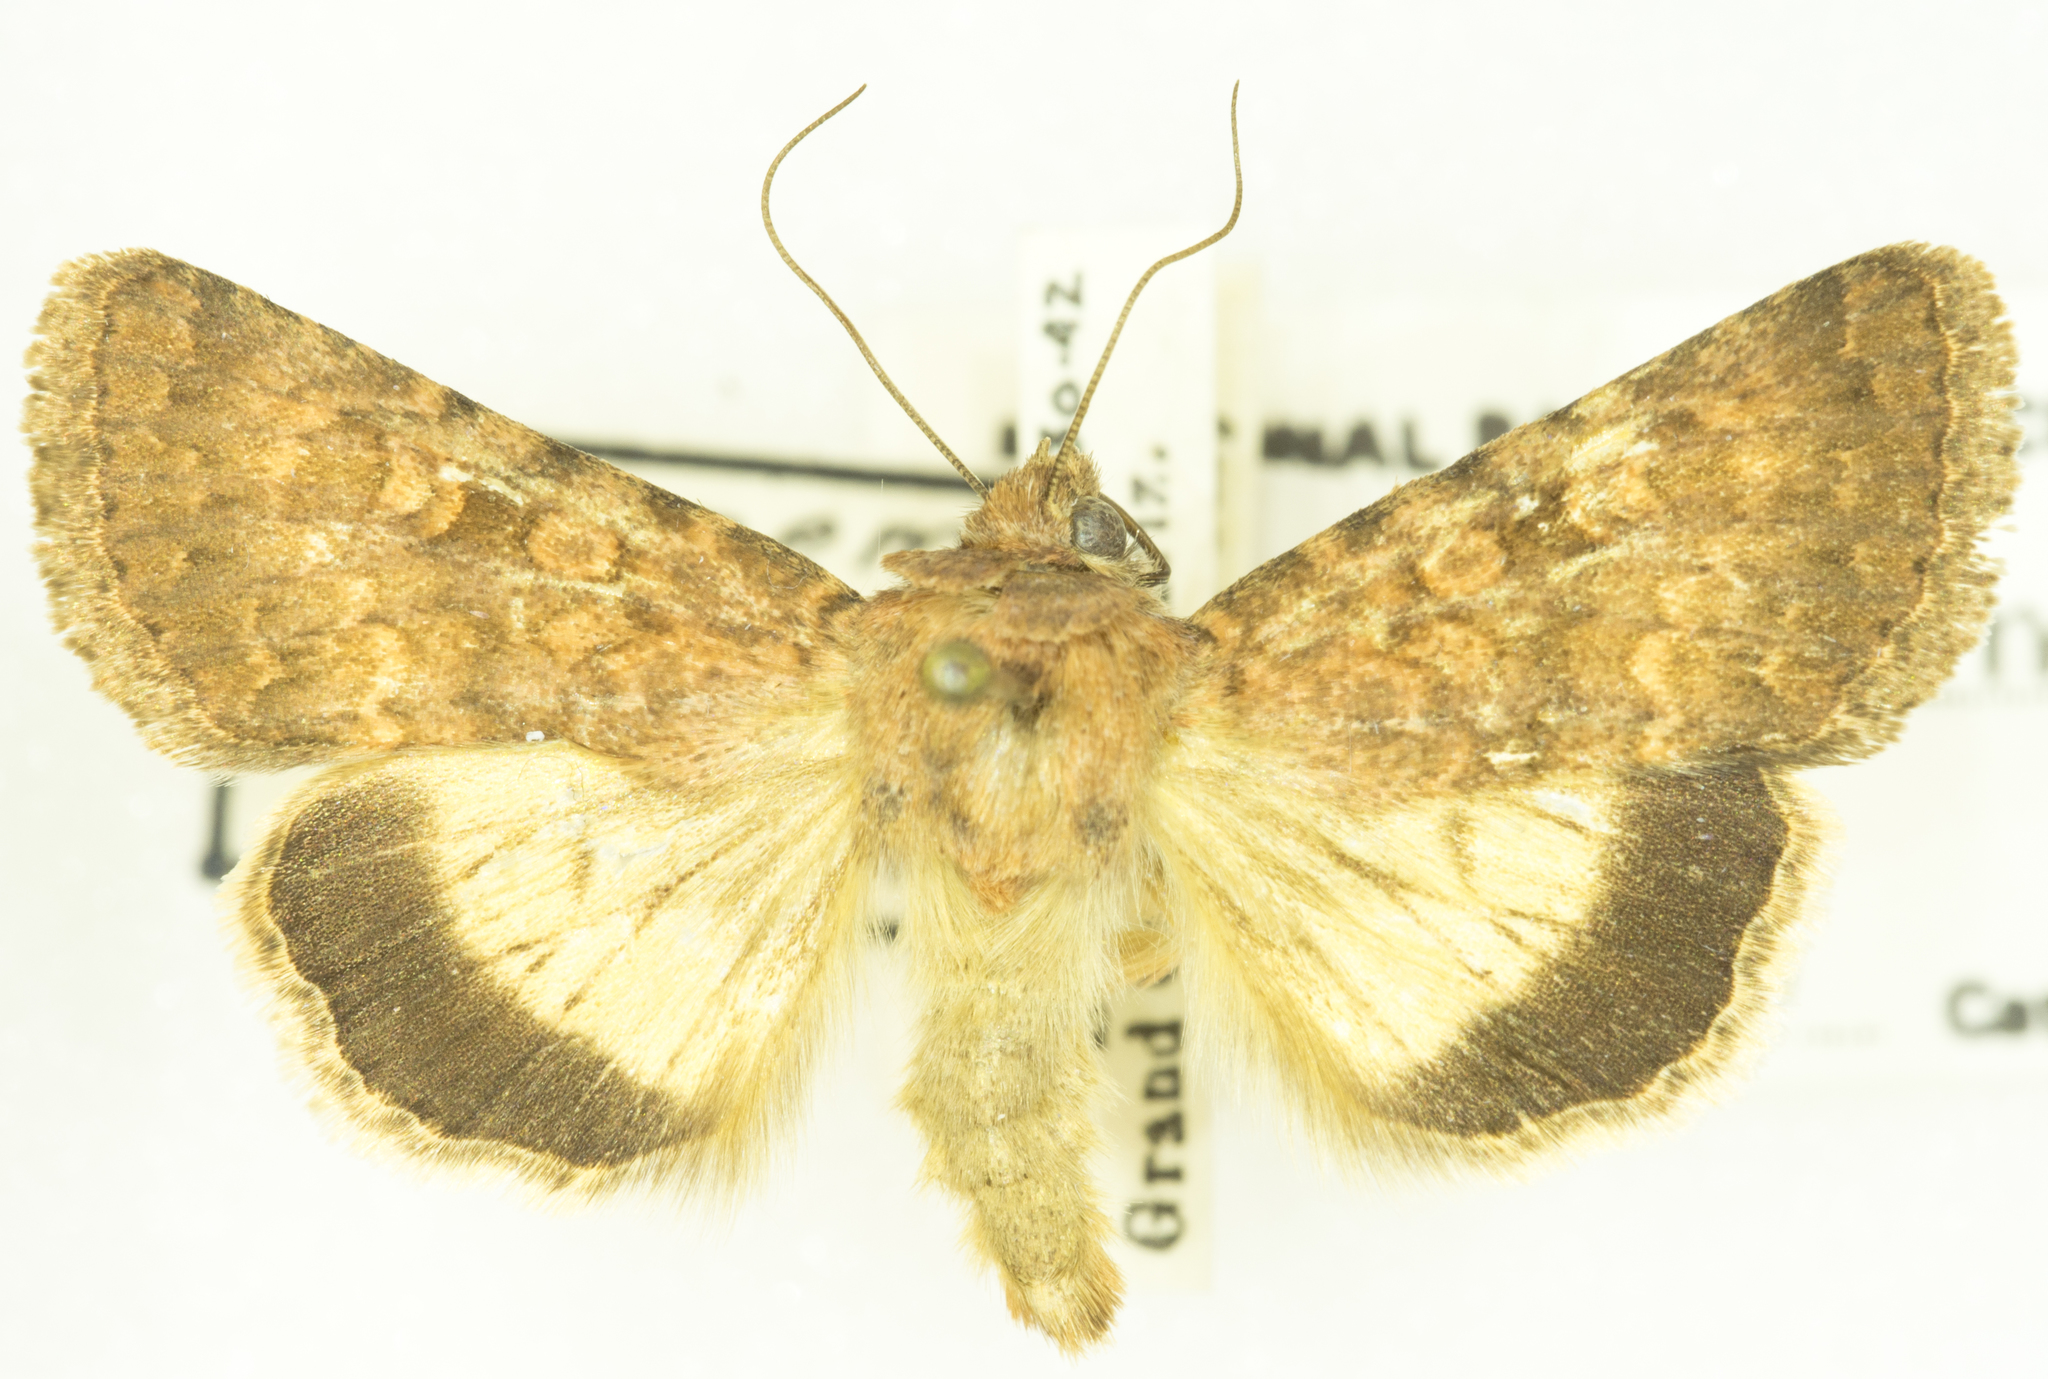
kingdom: Animalia
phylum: Arthropoda
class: Insecta
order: Lepidoptera
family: Noctuidae
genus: Sympistis
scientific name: Sympistis regina
